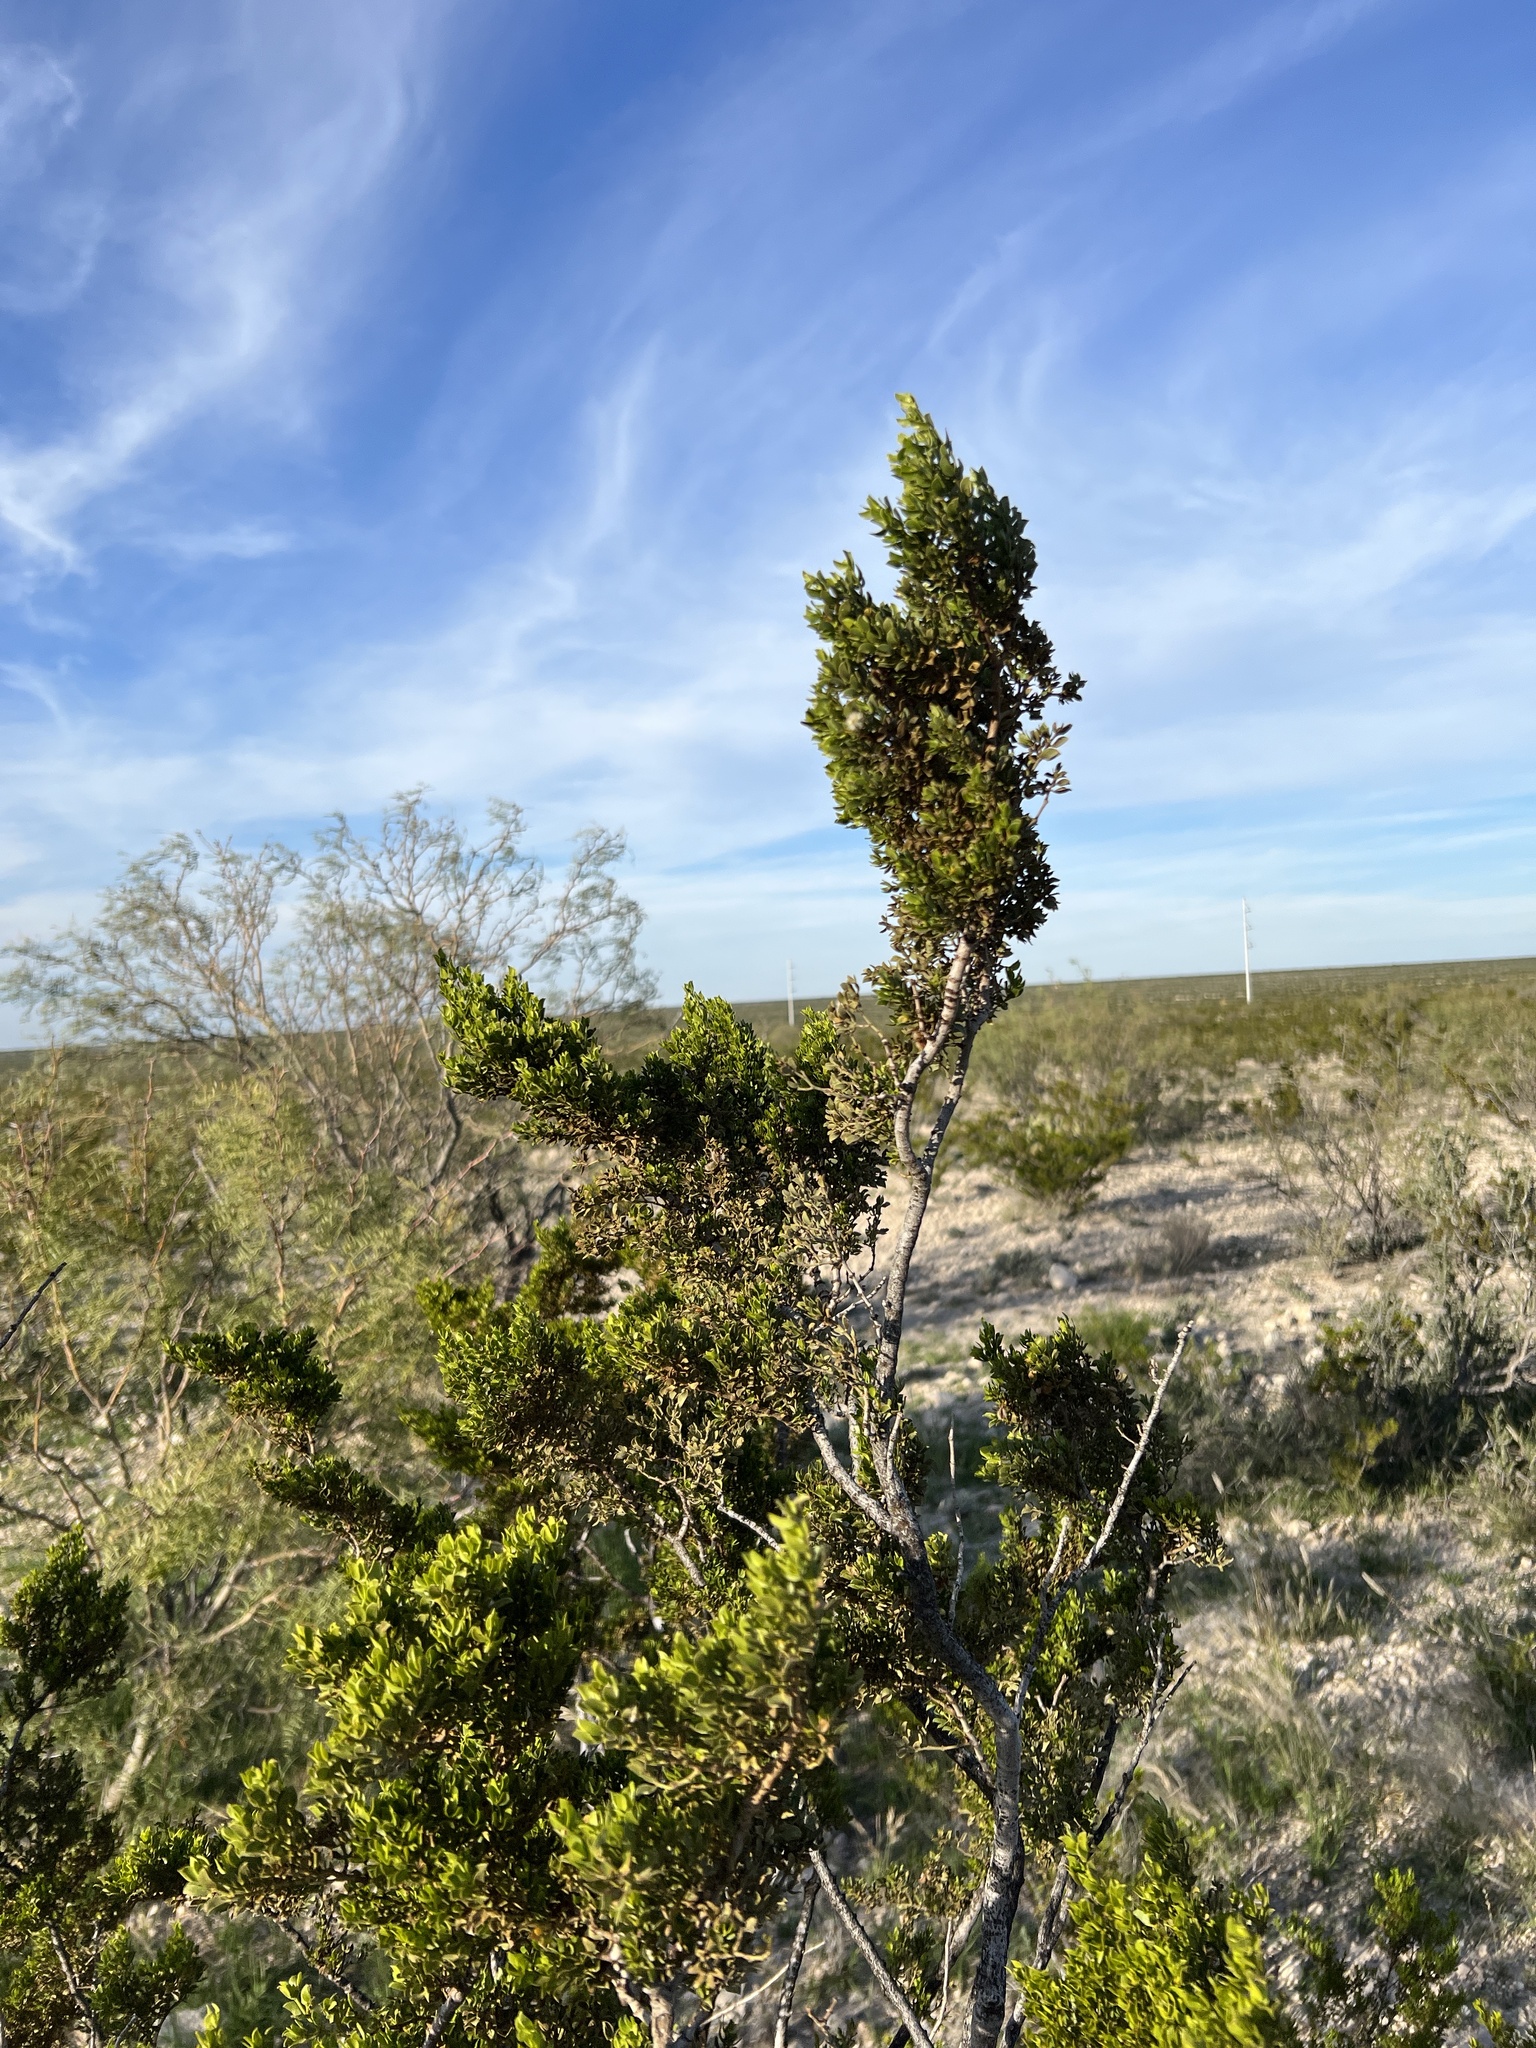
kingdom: Plantae
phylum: Tracheophyta
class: Magnoliopsida
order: Zygophyllales
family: Zygophyllaceae
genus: Larrea
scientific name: Larrea tridentata
